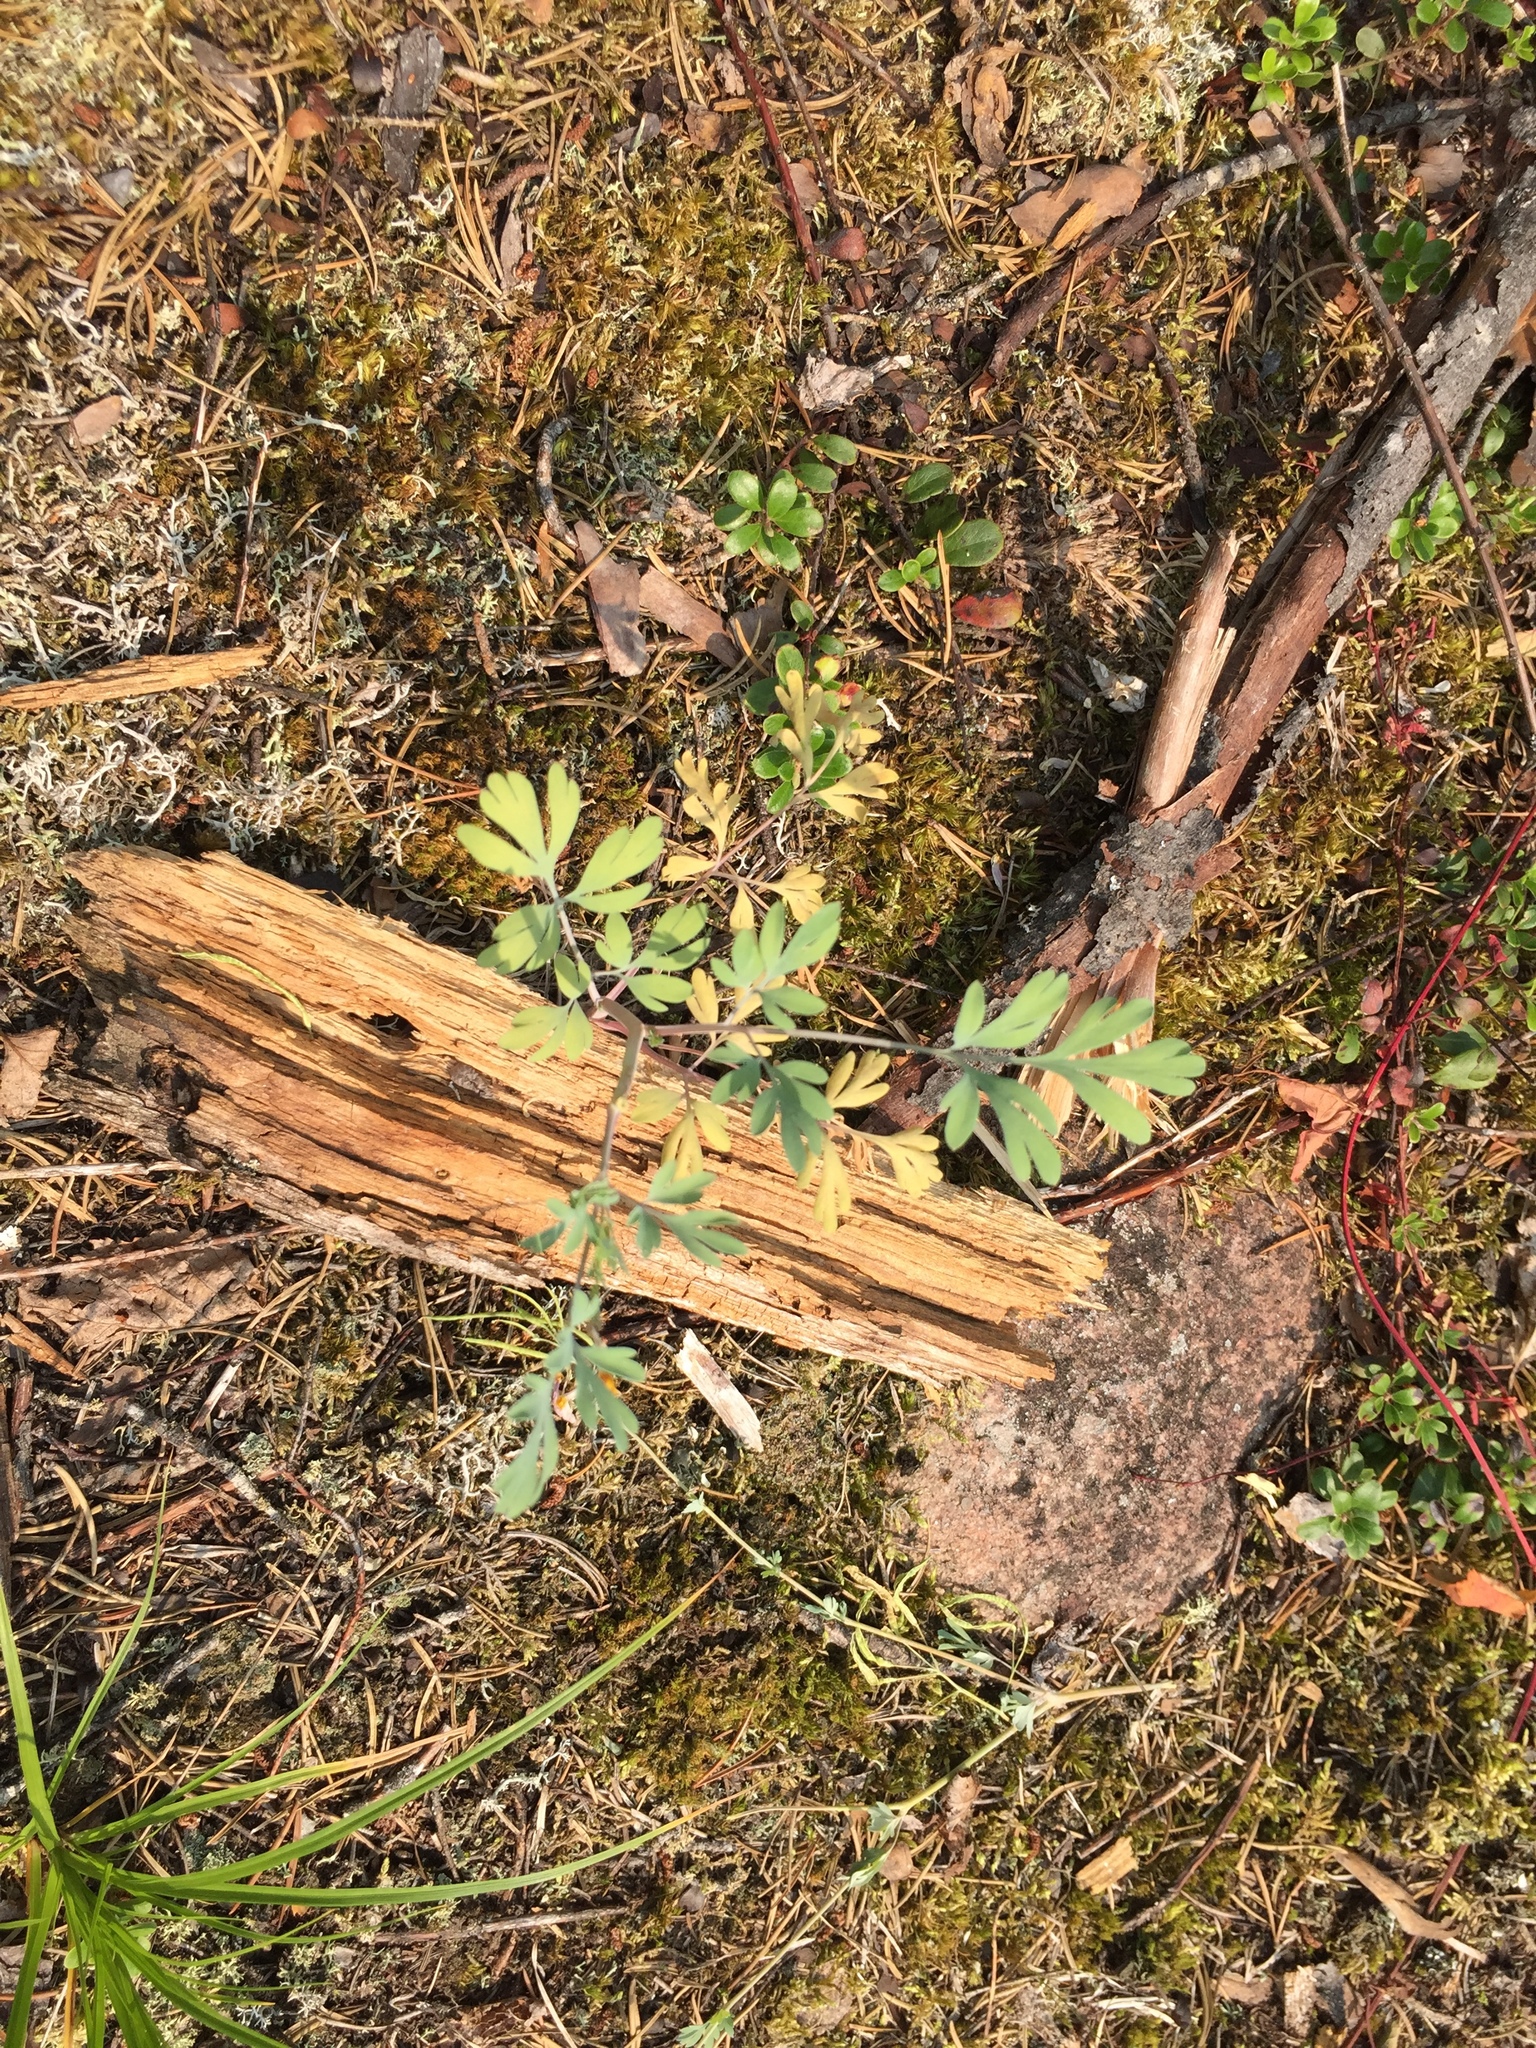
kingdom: Plantae
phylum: Tracheophyta
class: Magnoliopsida
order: Ranunculales
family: Papaveraceae
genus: Capnoides
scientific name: Capnoides sempervirens
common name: Rock harlequin
